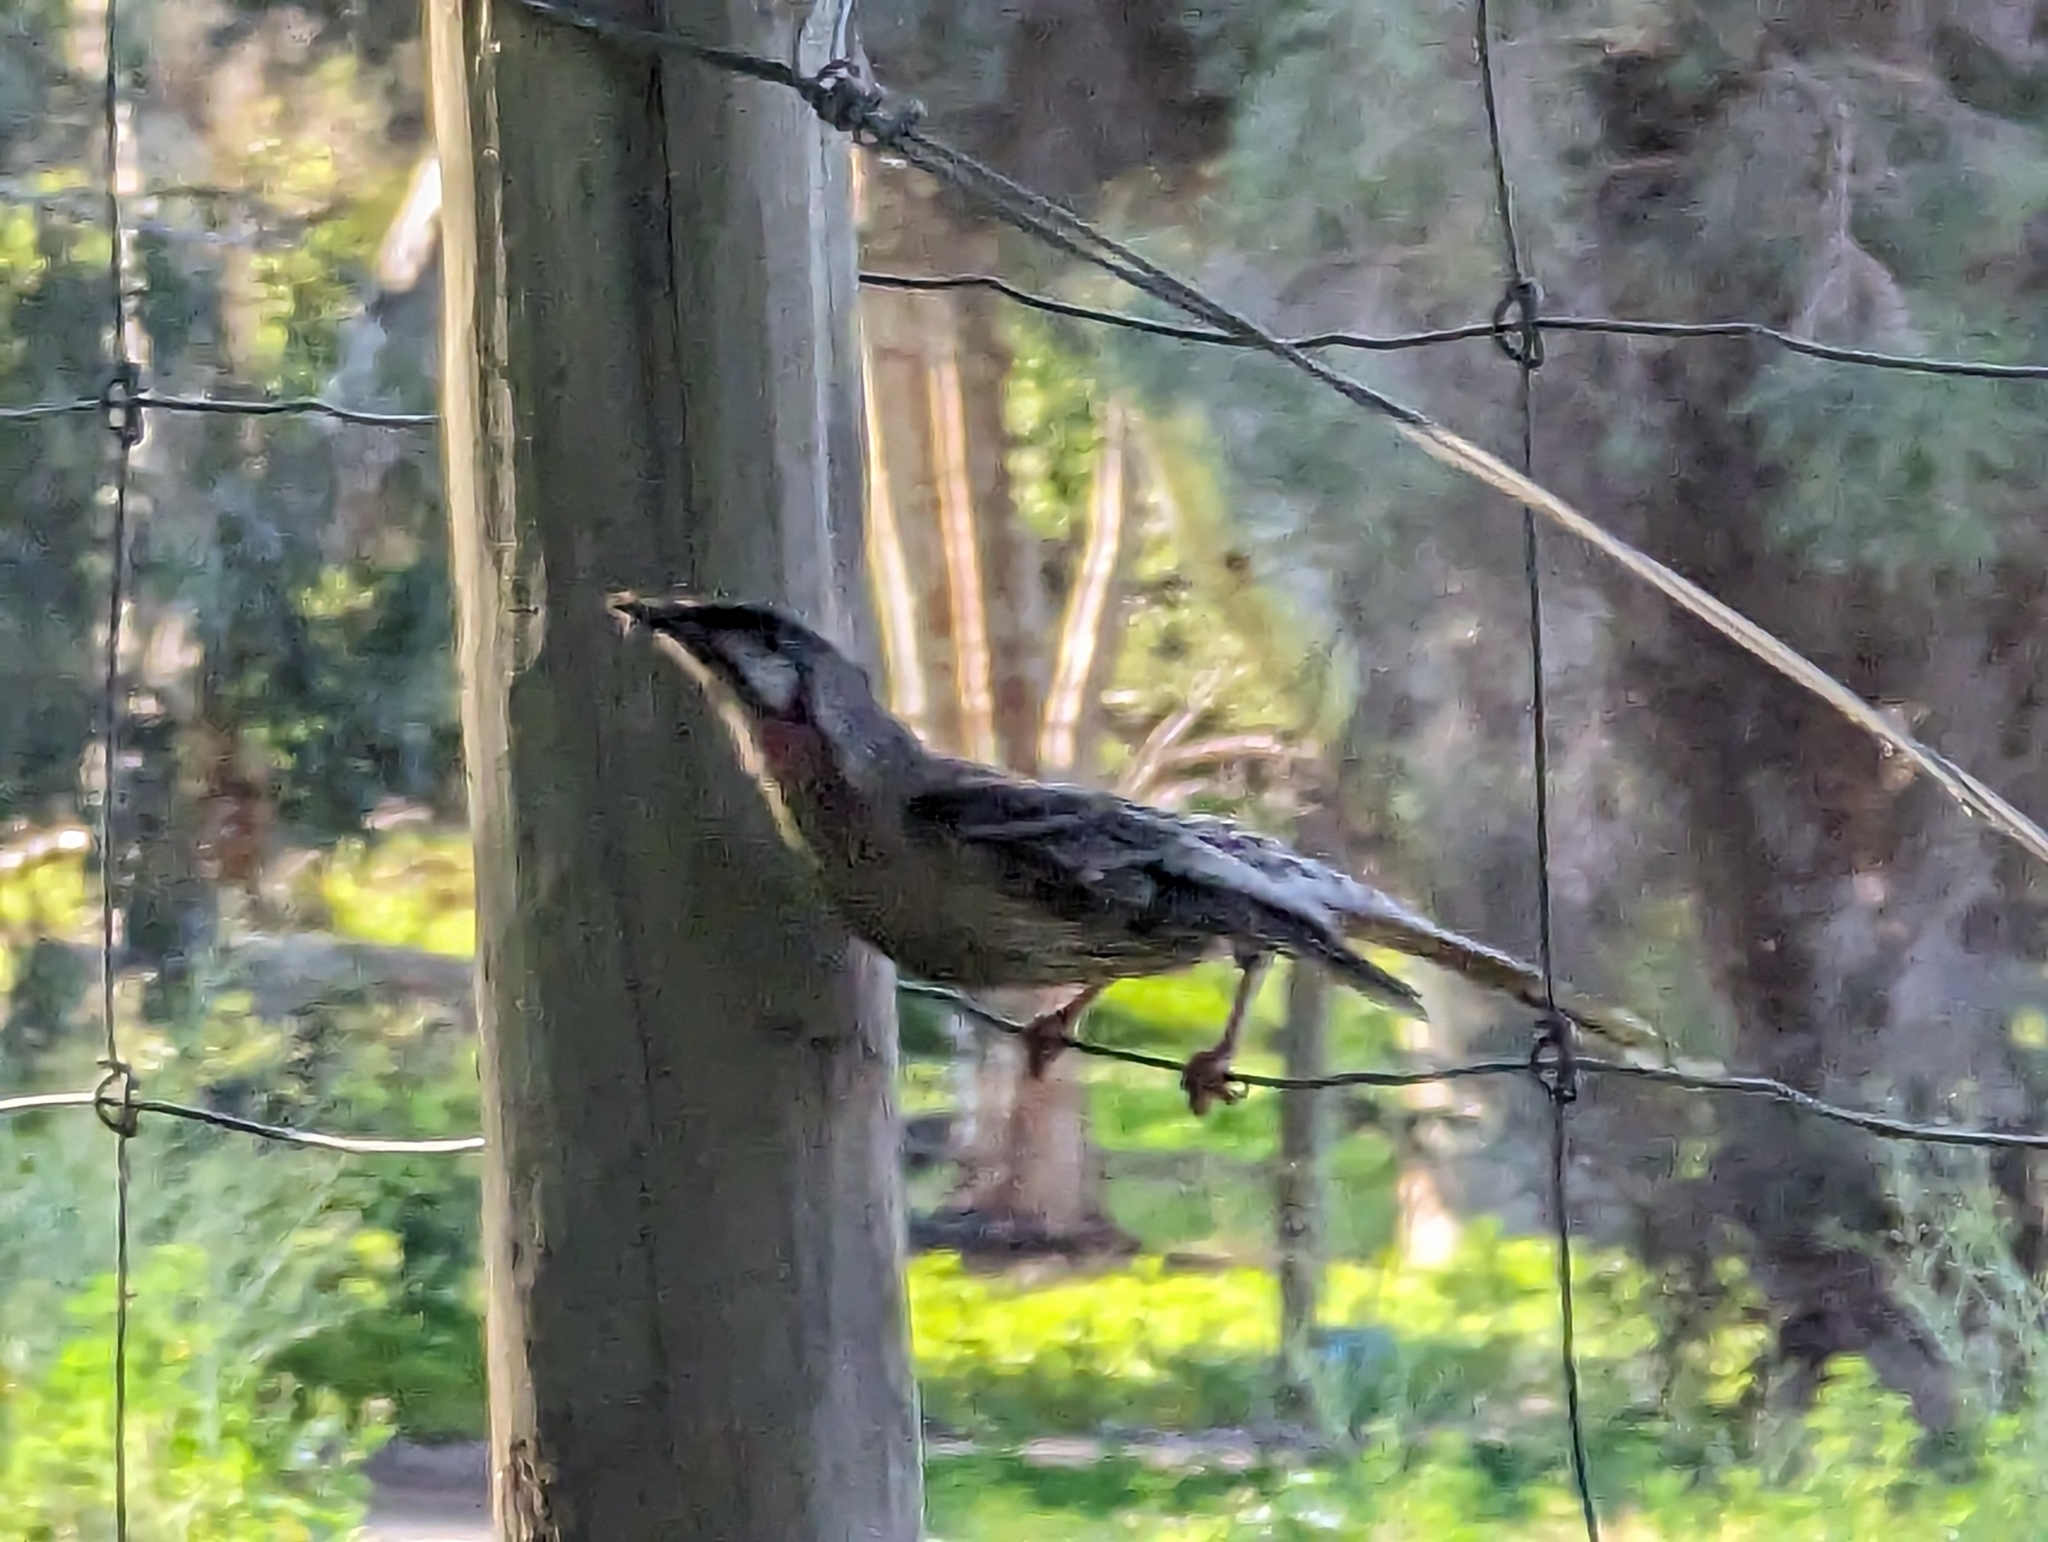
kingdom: Animalia
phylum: Chordata
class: Aves
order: Passeriformes
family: Meliphagidae
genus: Anthochaera
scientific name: Anthochaera carunculata
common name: Red wattlebird
